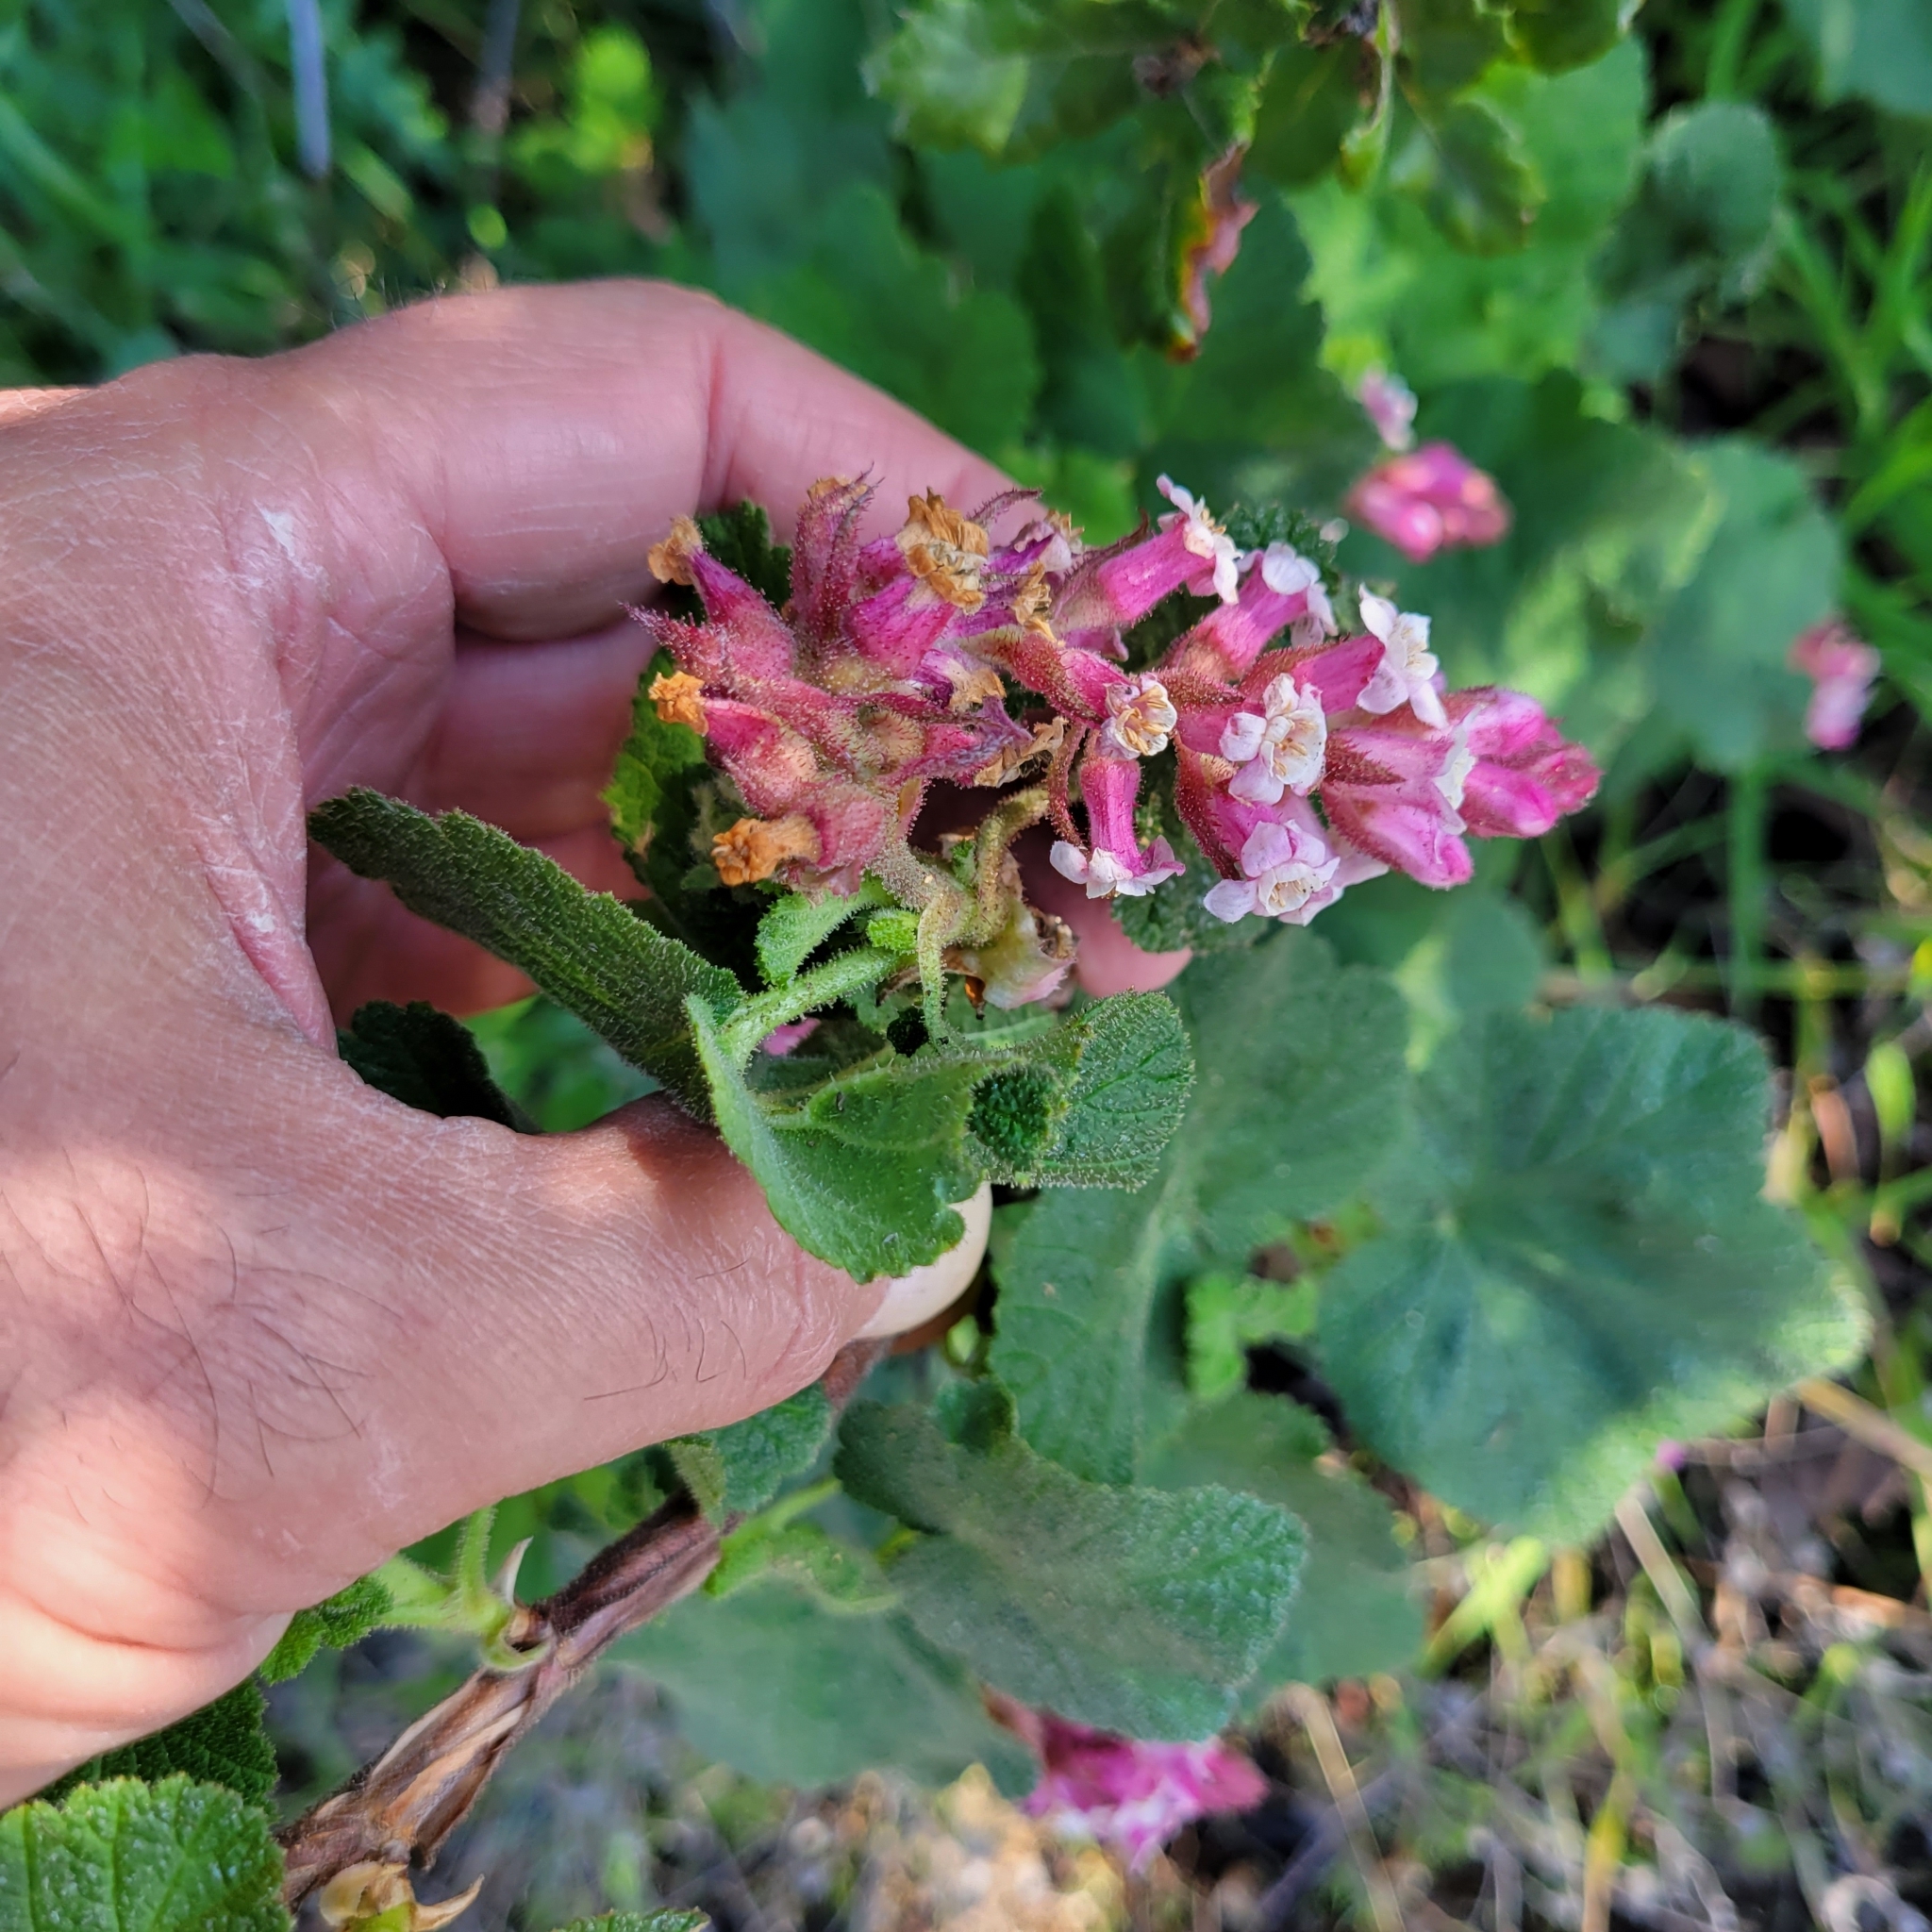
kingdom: Plantae
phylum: Tracheophyta
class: Magnoliopsida
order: Saxifragales
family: Grossulariaceae
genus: Ribes
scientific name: Ribes malvaceum
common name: Chaparral currant
